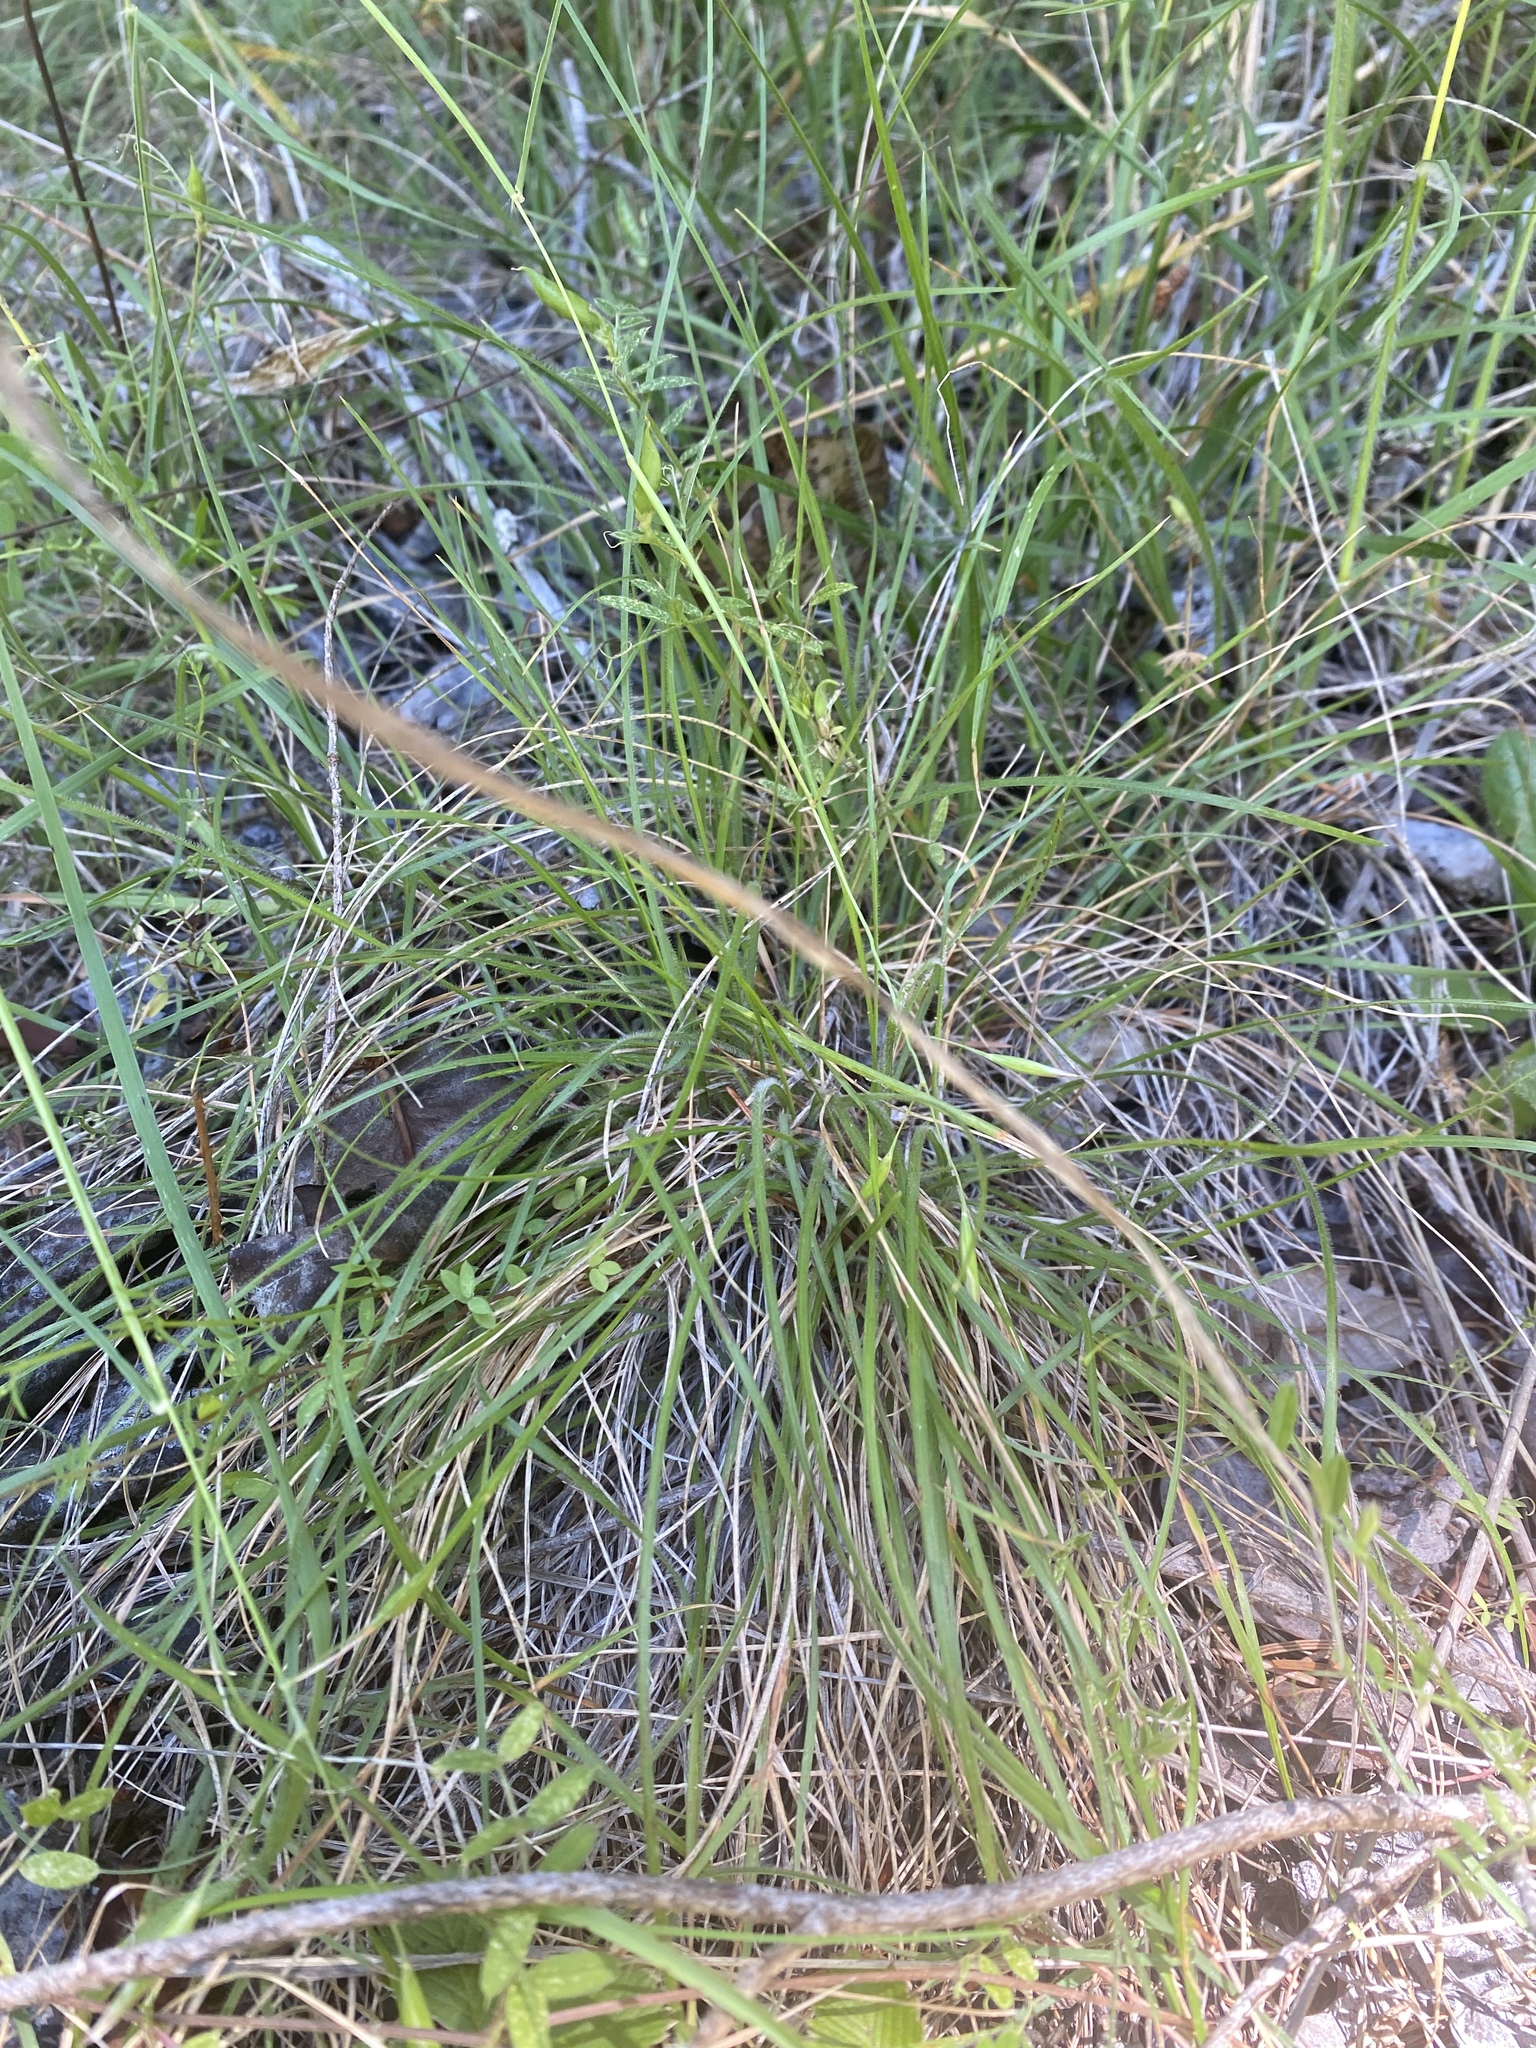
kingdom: Plantae
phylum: Tracheophyta
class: Liliopsida
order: Poales
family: Poaceae
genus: Danthonia
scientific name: Danthonia californica
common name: California oat grass
